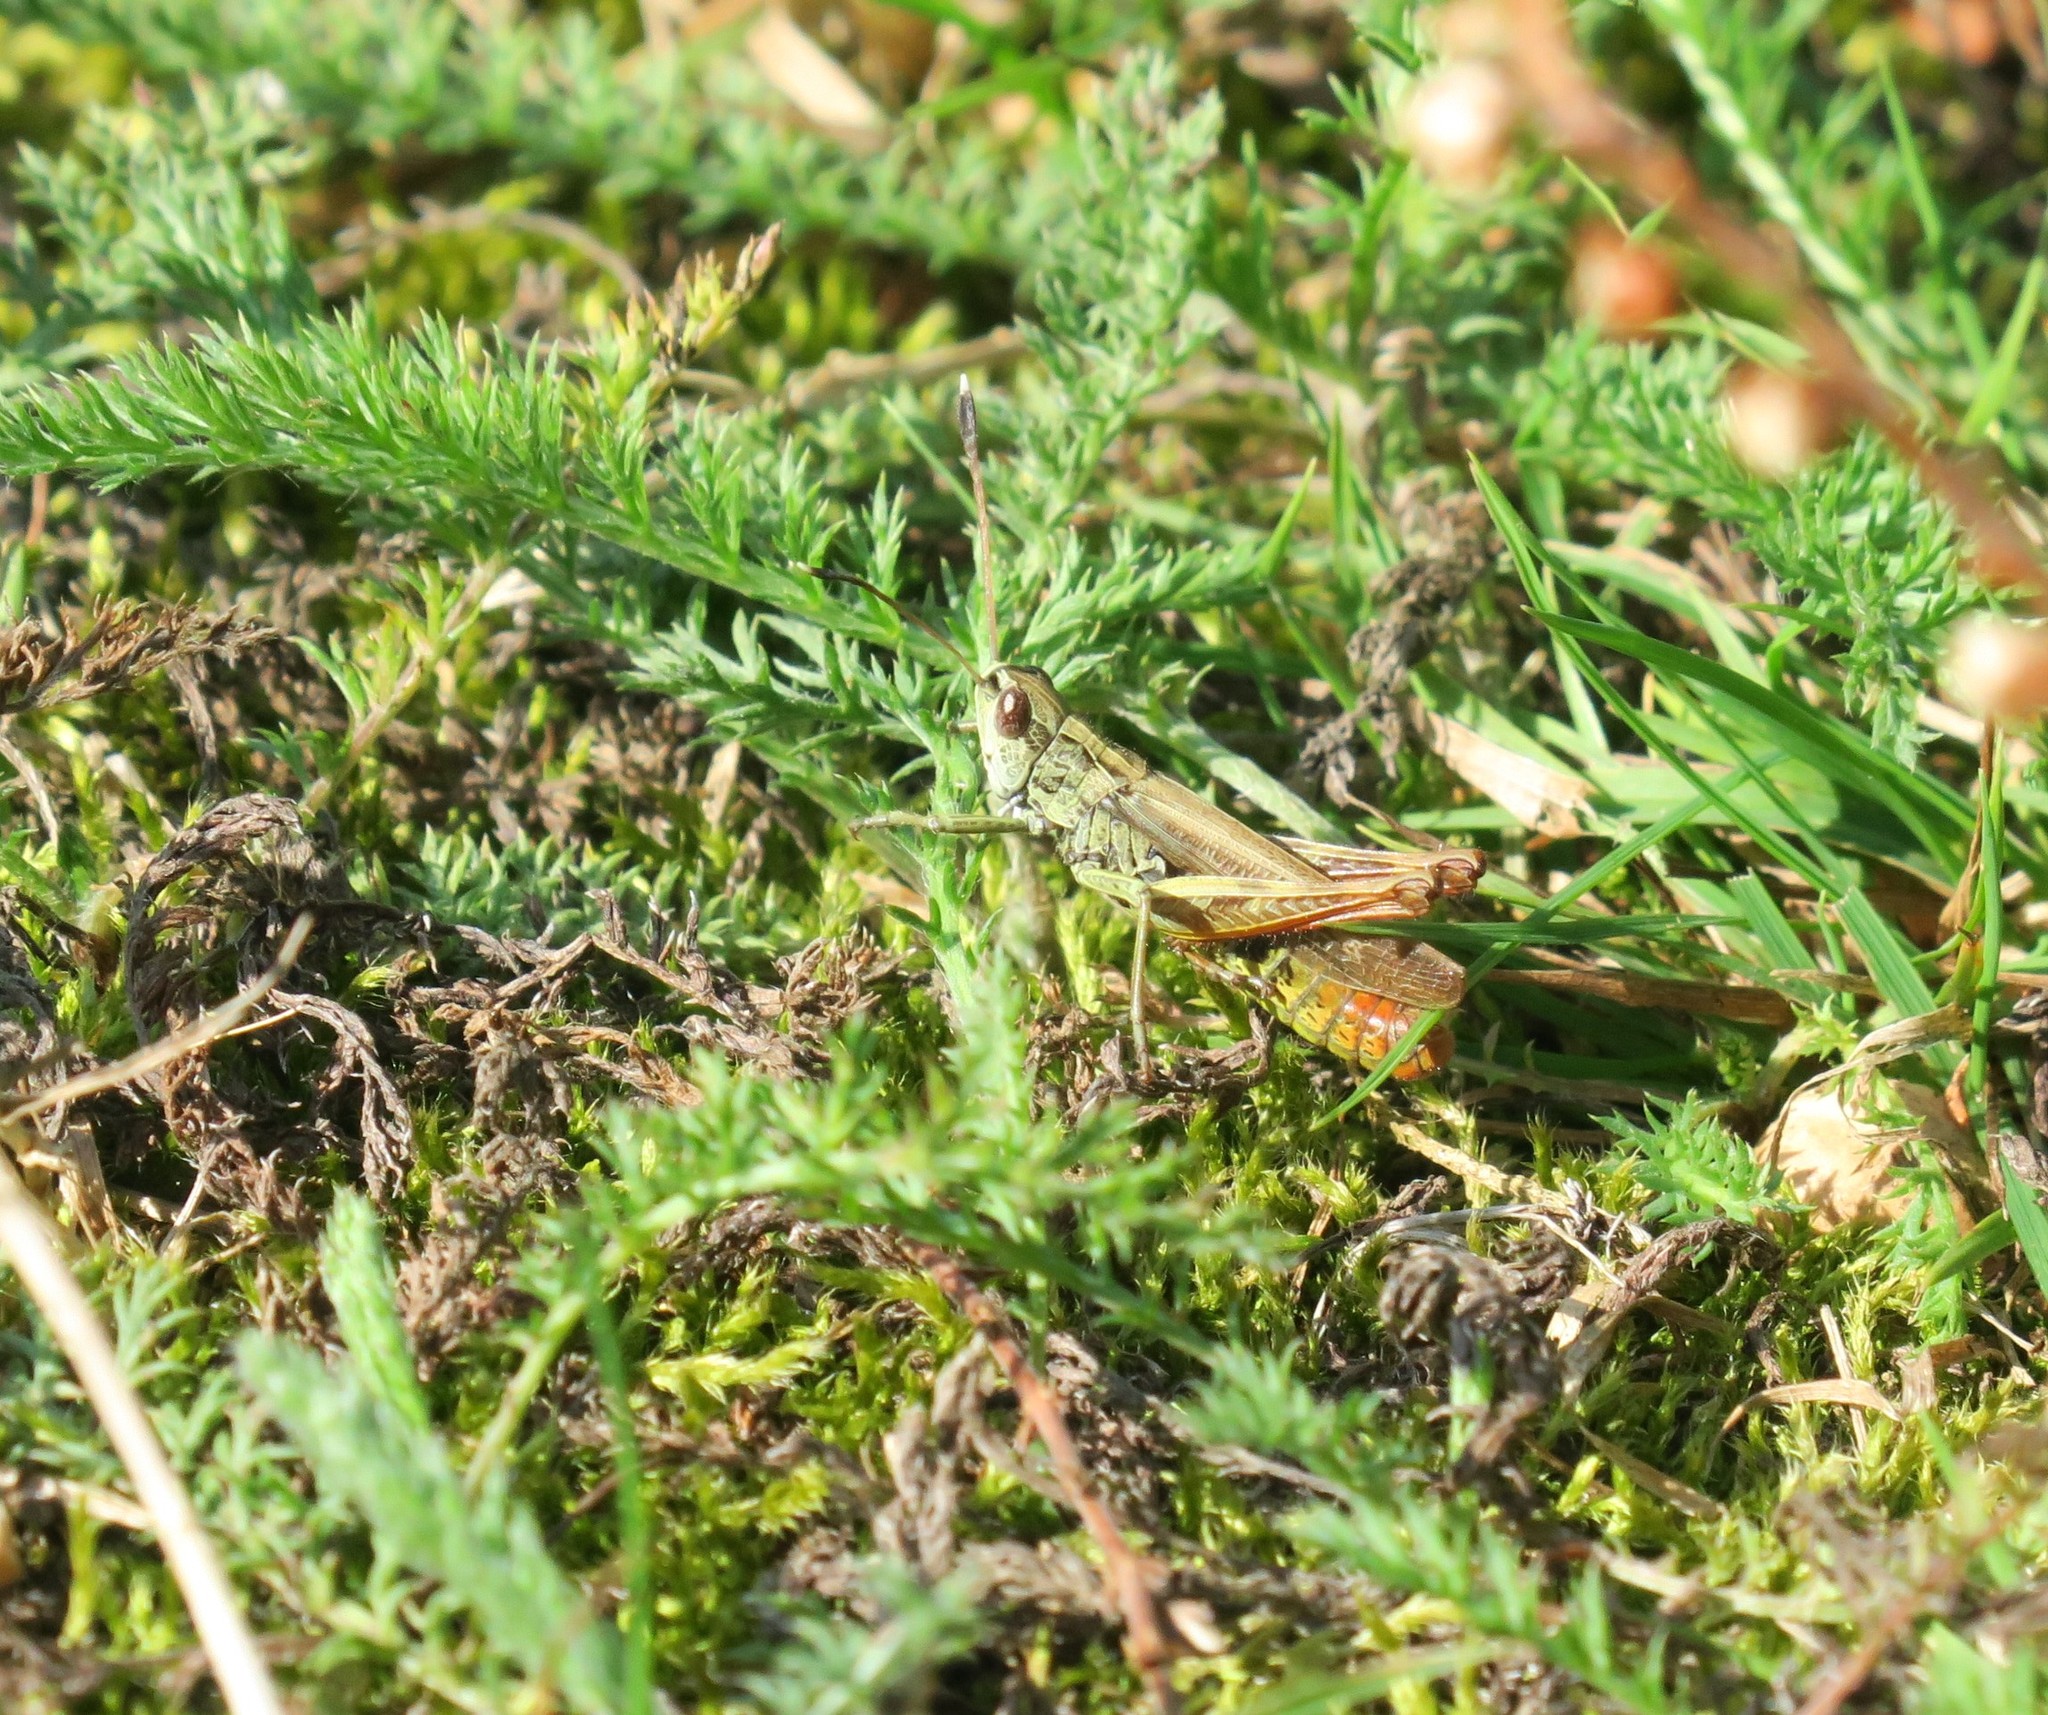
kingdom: Animalia
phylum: Arthropoda
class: Insecta
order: Orthoptera
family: Acrididae
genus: Gomphocerippus
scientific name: Gomphocerippus rufus
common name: Rufous grasshopper
